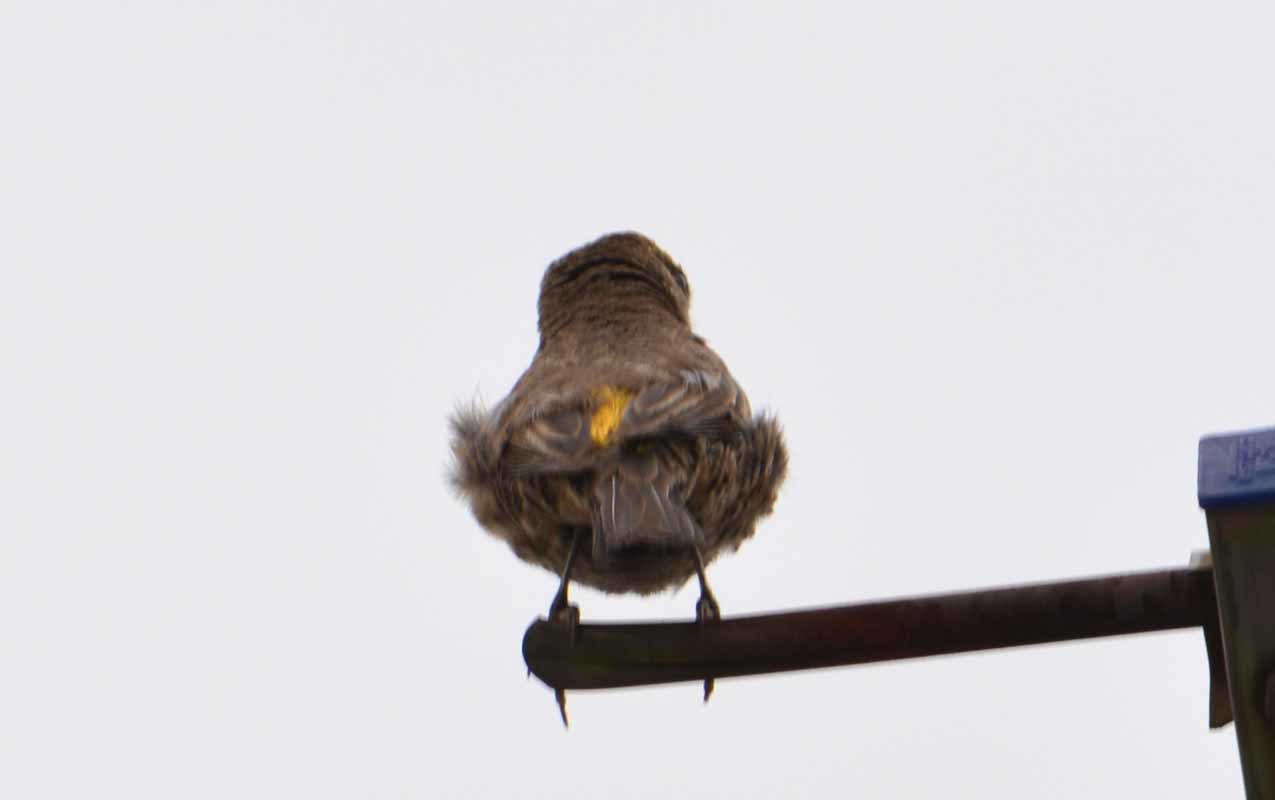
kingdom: Animalia
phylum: Chordata
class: Aves
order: Passeriformes
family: Fringillidae
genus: Haemorhous
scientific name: Haemorhous mexicanus
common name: House finch
